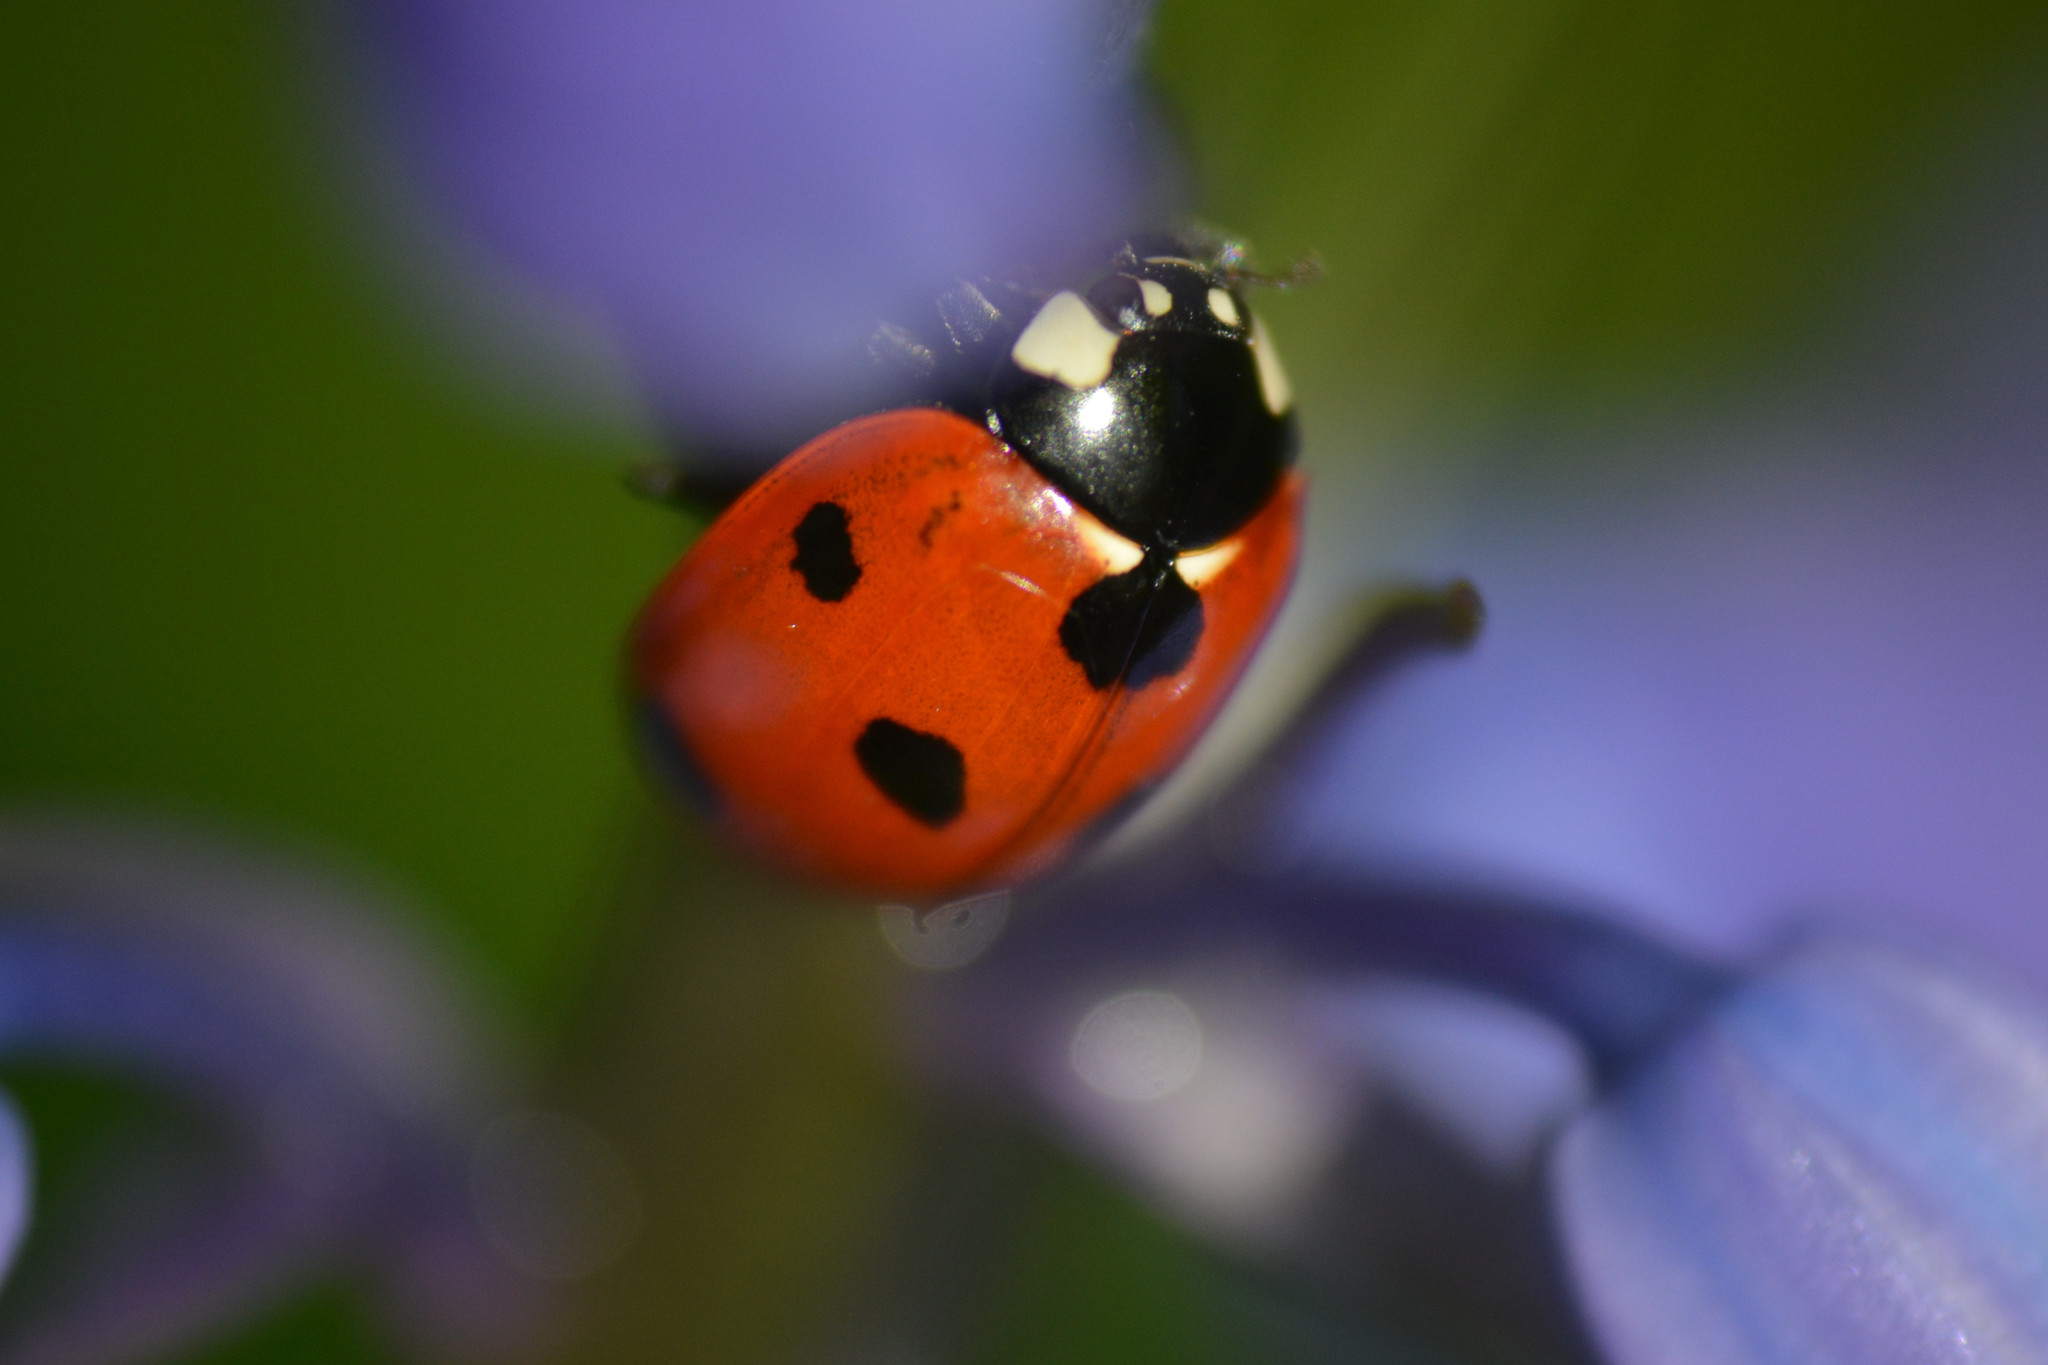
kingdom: Animalia
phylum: Arthropoda
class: Insecta
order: Coleoptera
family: Coccinellidae
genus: Coccinella
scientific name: Coccinella septempunctata
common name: Sevenspotted lady beetle
